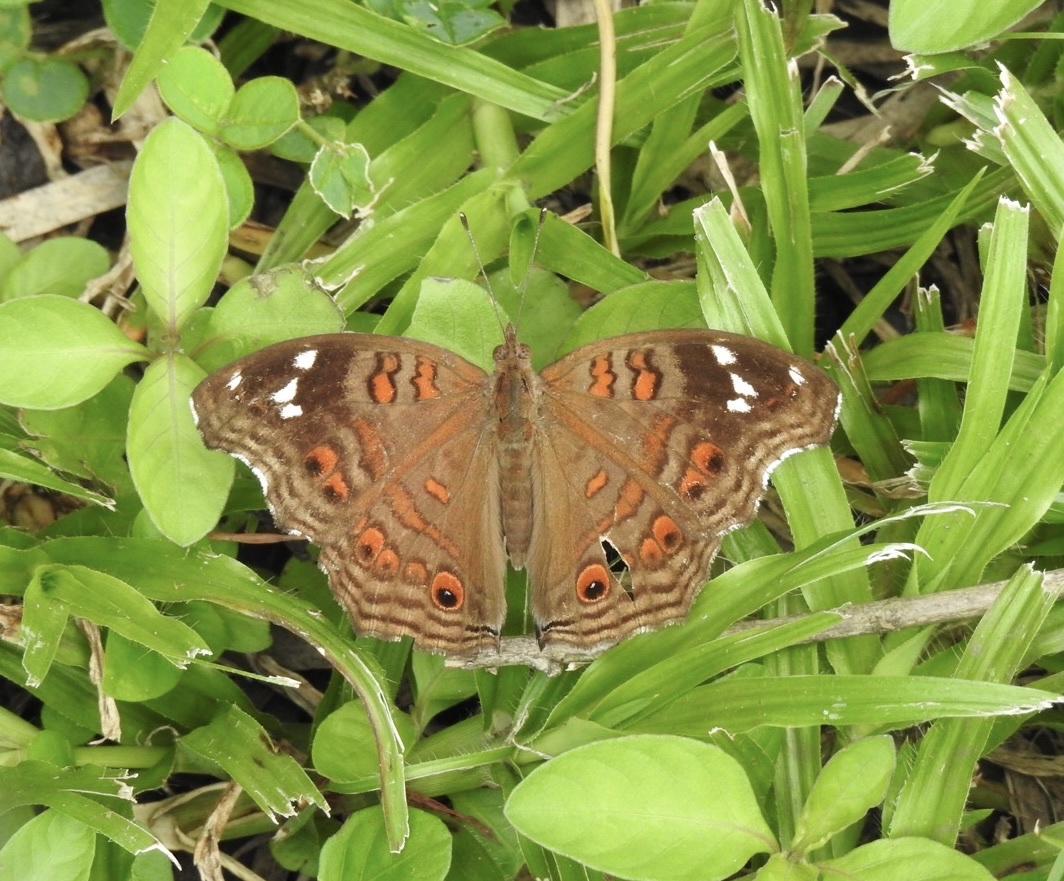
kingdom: Animalia
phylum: Arthropoda
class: Insecta
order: Lepidoptera
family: Nymphalidae
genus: Junonia
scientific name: Junonia natalica
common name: Brown pansy
